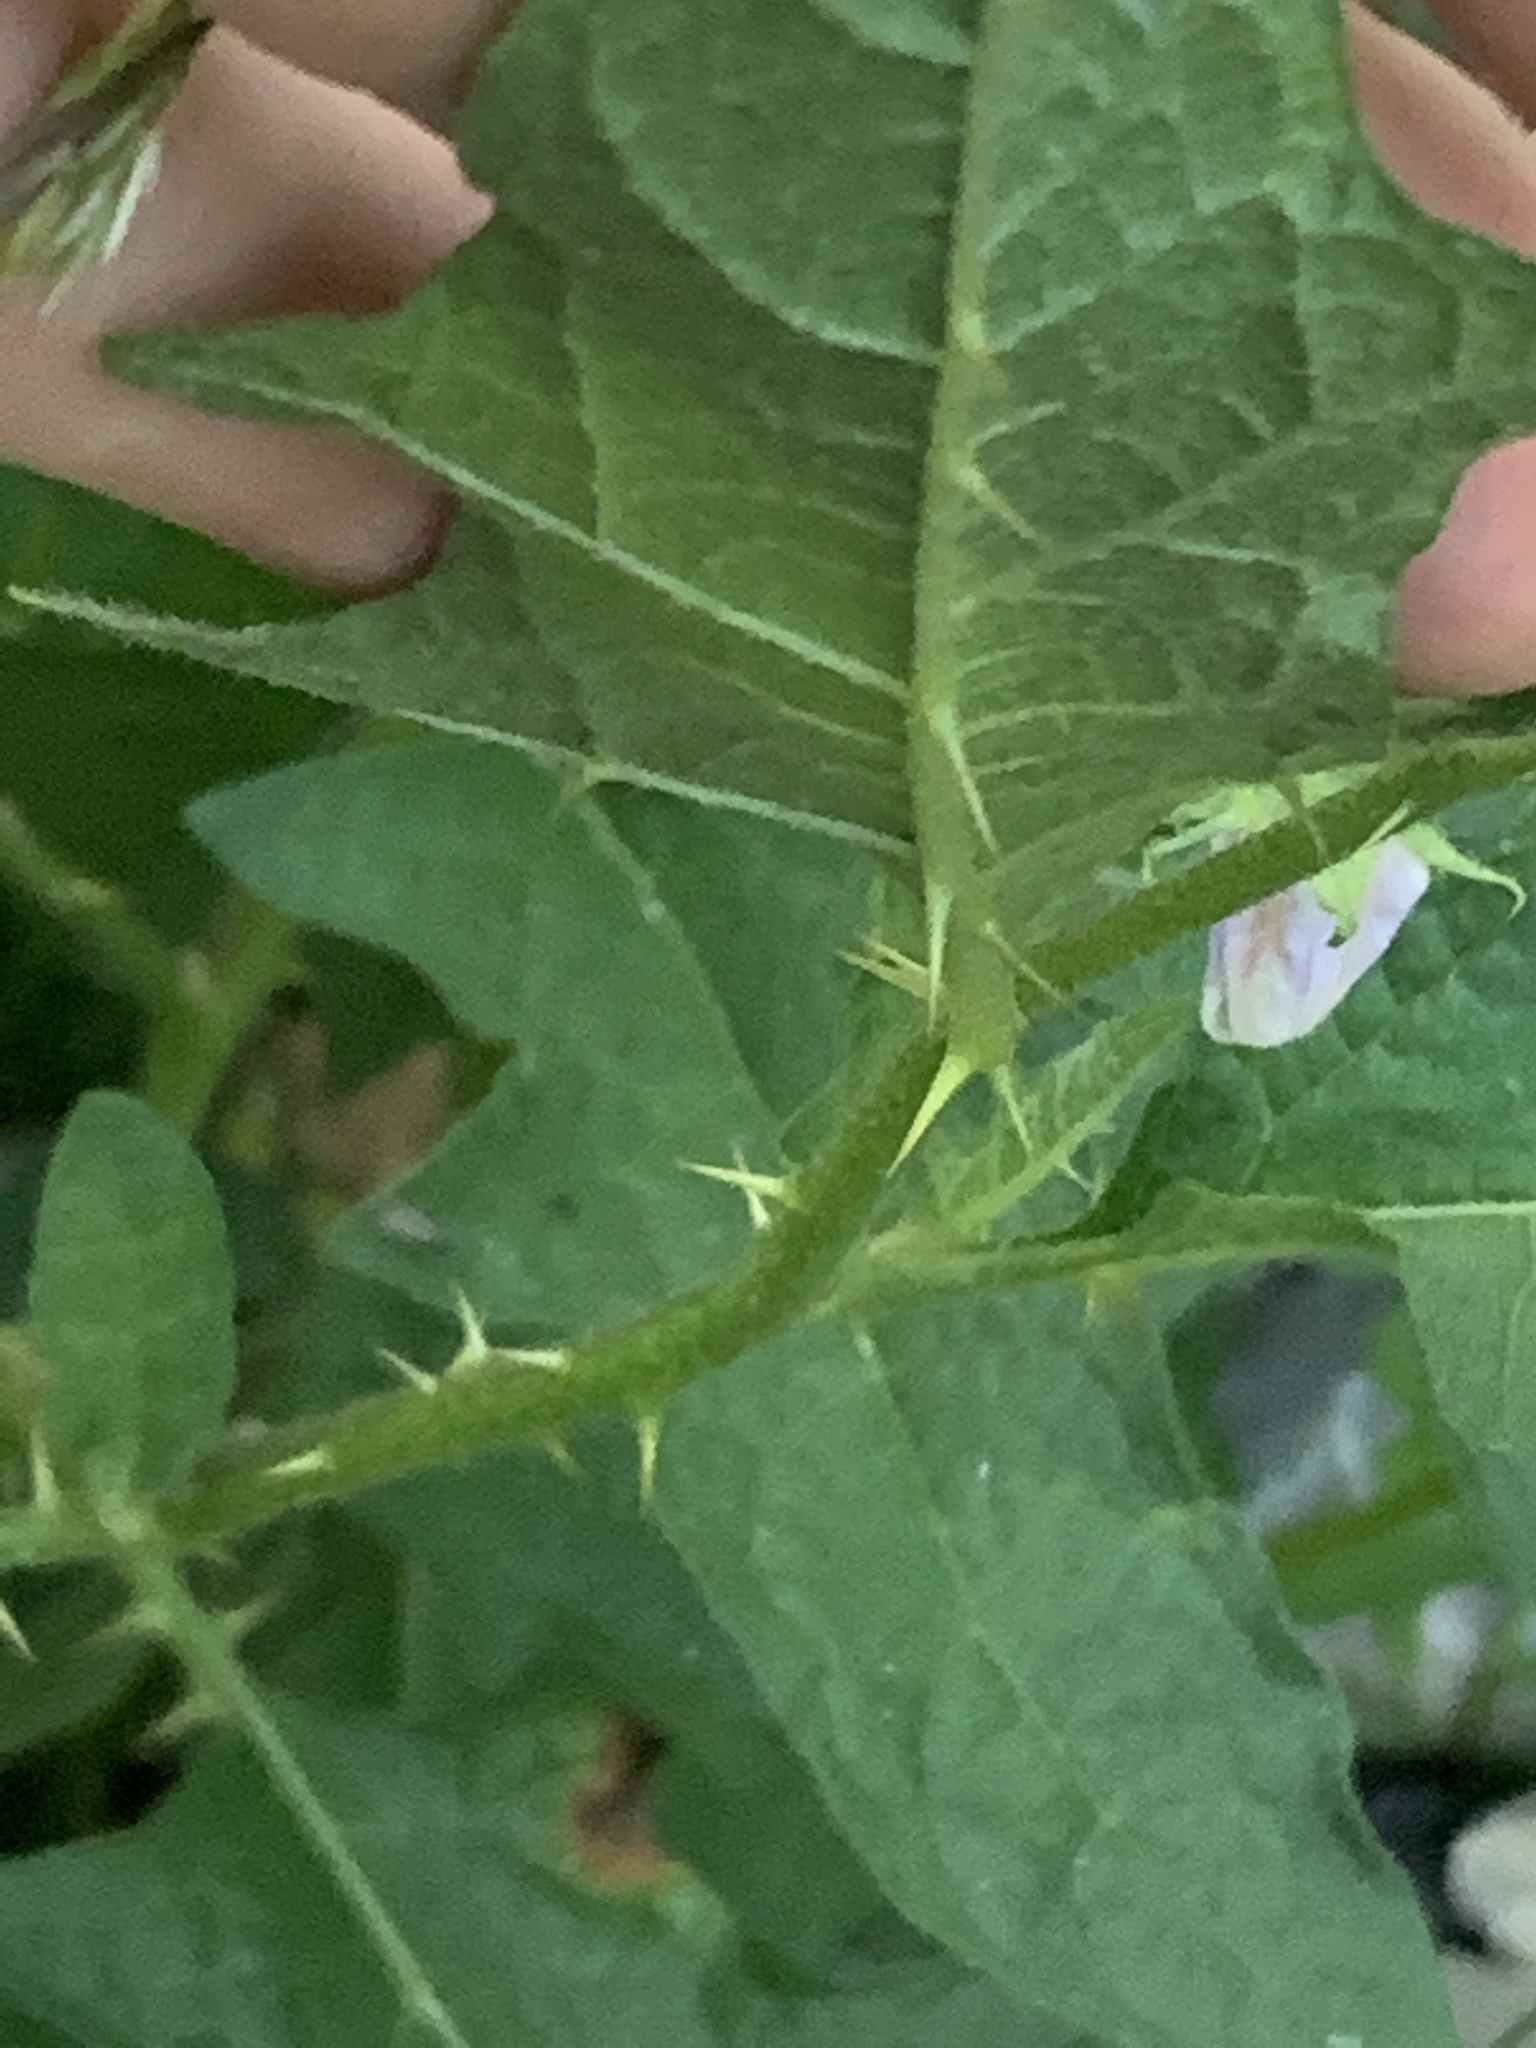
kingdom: Plantae
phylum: Tracheophyta
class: Magnoliopsida
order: Solanales
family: Solanaceae
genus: Solanum
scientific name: Solanum carolinense
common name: Horse-nettle
